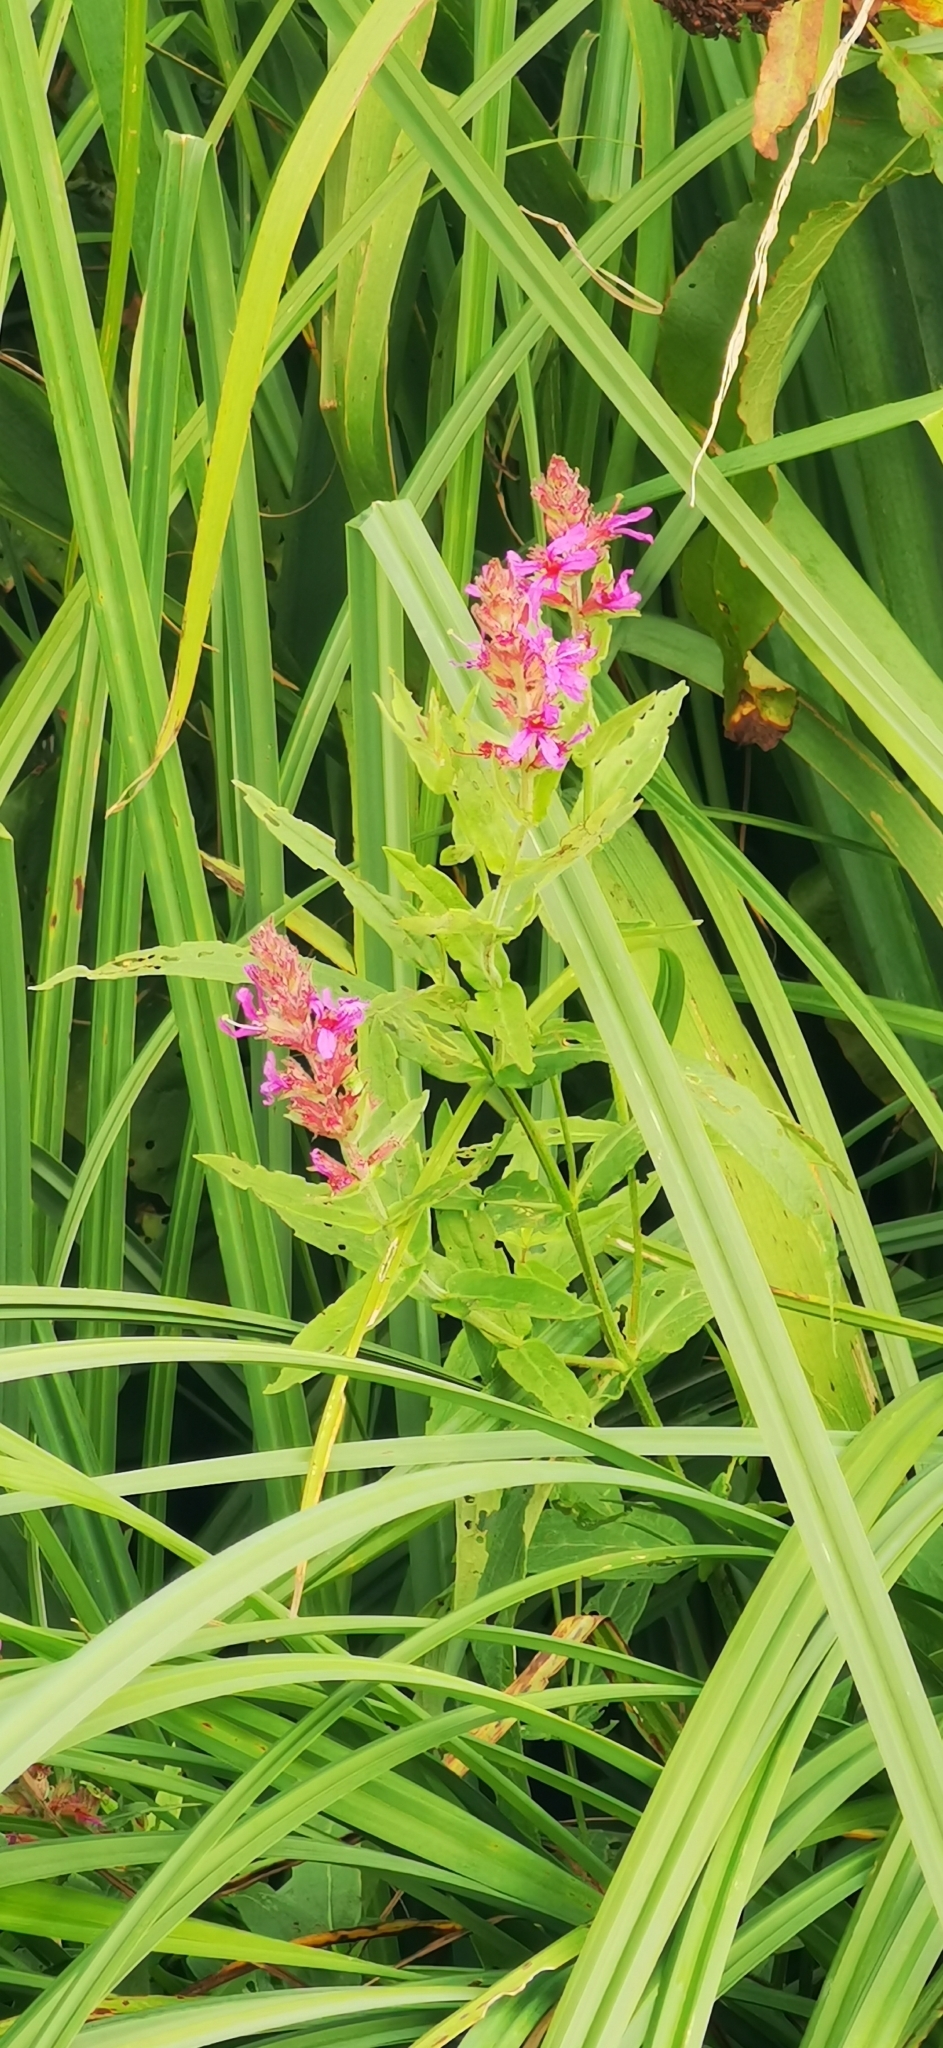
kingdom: Plantae
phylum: Tracheophyta
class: Magnoliopsida
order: Myrtales
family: Lythraceae
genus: Lythrum
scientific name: Lythrum salicaria
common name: Purple loosestrife
